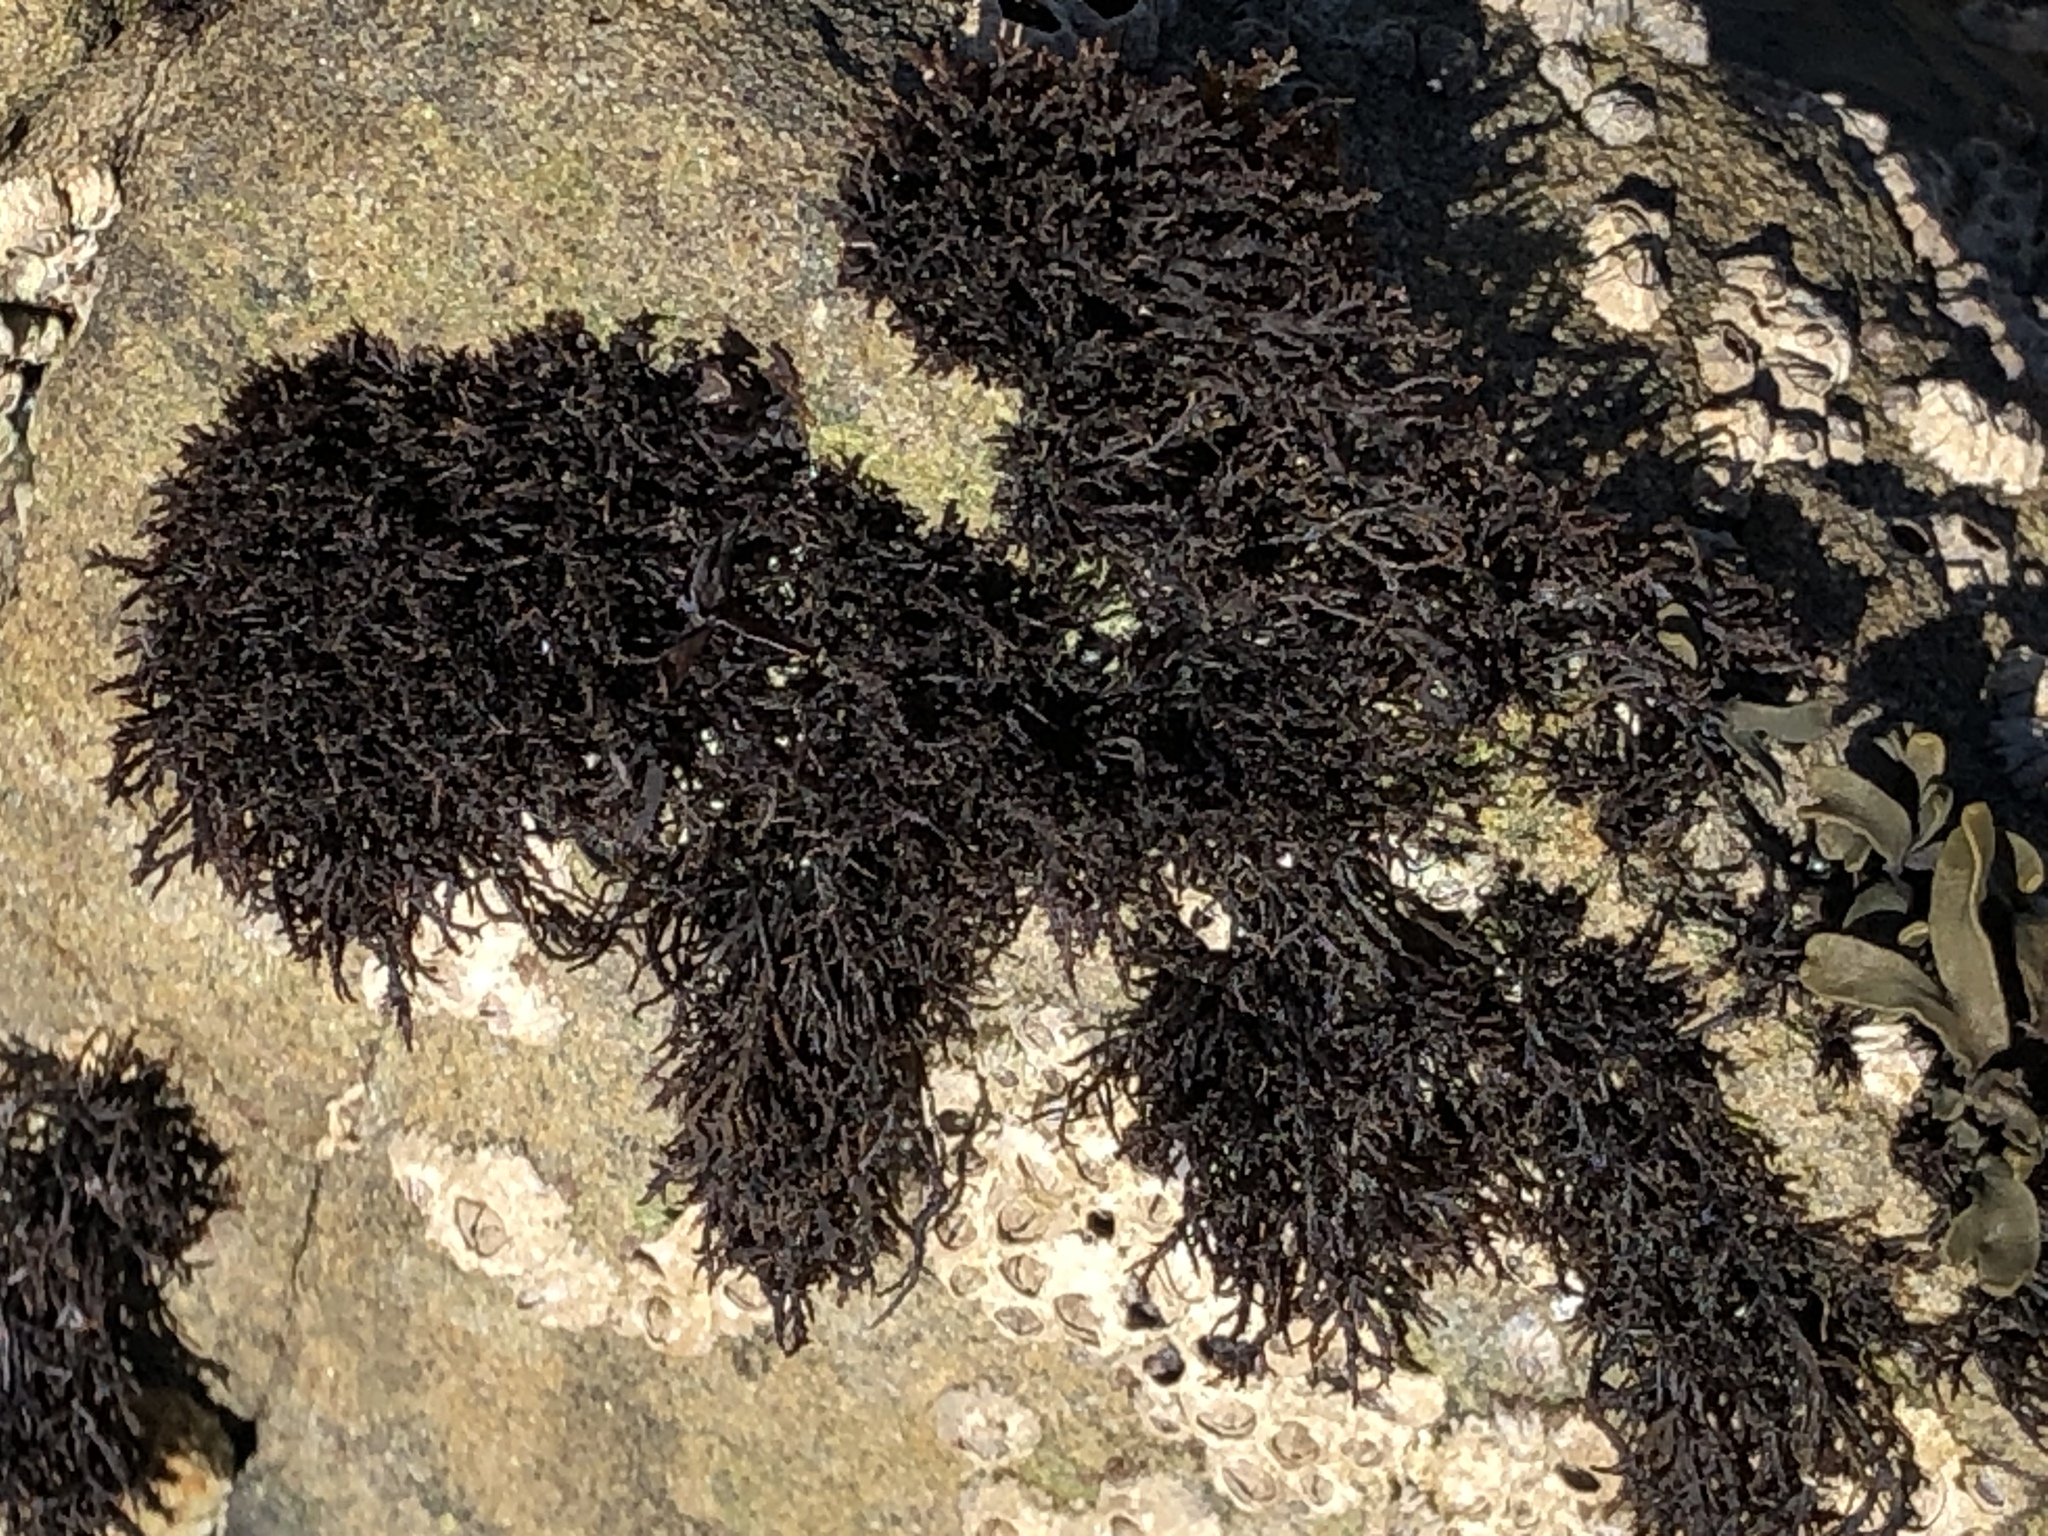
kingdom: Plantae
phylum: Rhodophyta
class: Florideophyceae
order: Gigartinales
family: Endocladiaceae
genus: Endocladia
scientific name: Endocladia muricata
